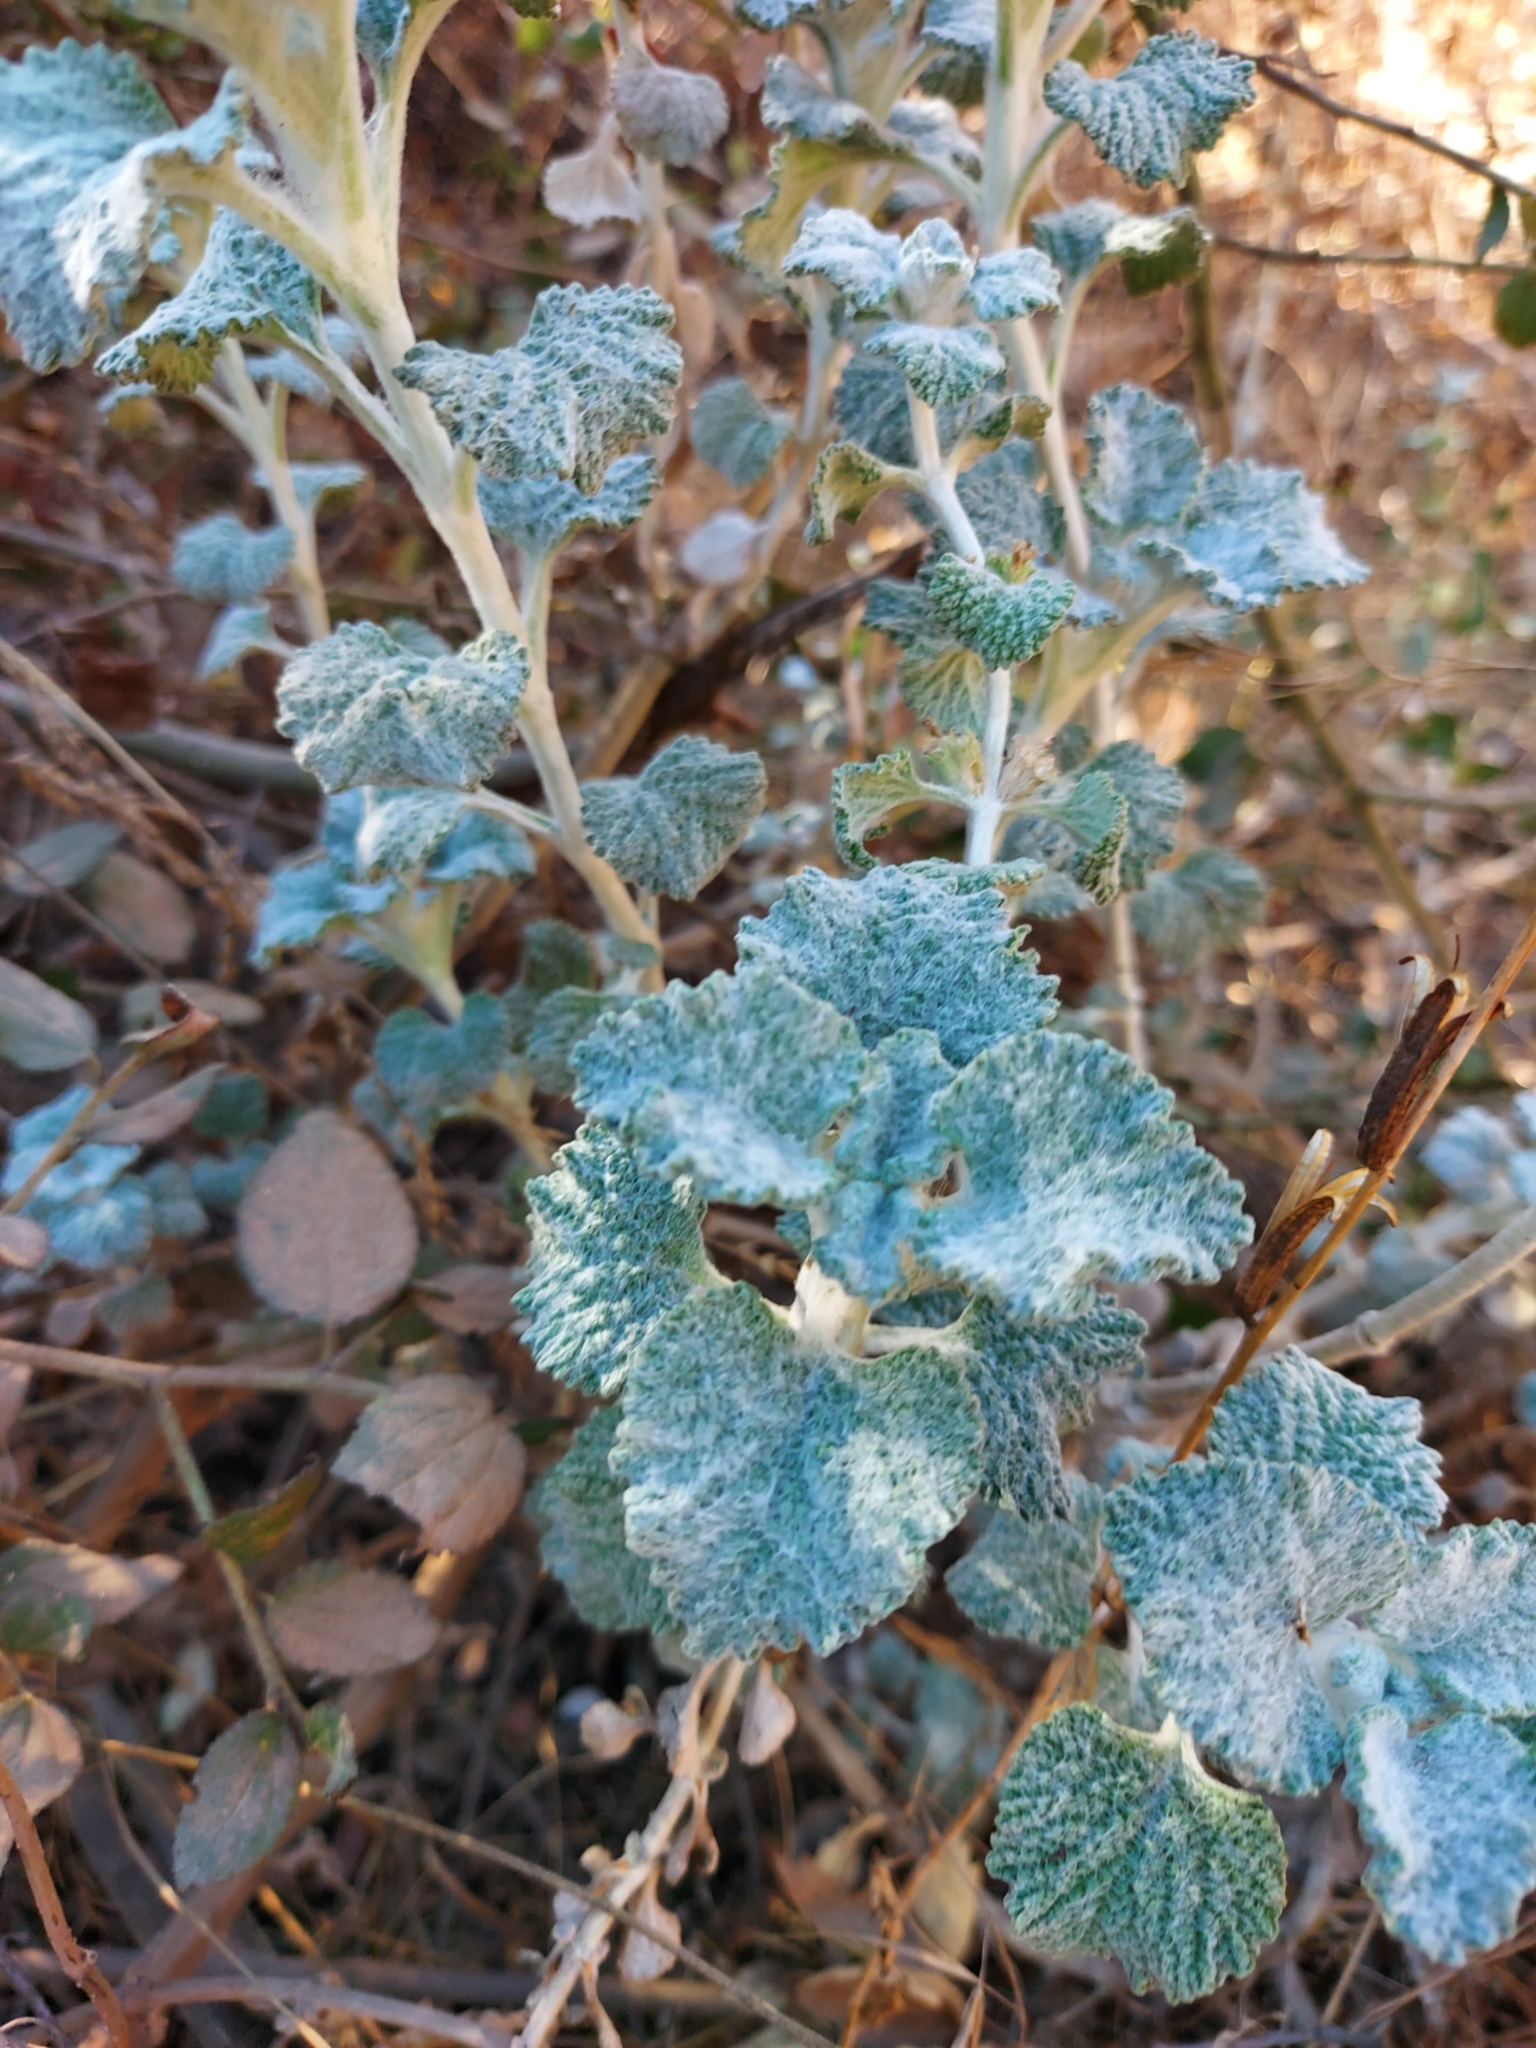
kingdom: Plantae
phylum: Tracheophyta
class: Magnoliopsida
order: Lamiales
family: Lamiaceae
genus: Marrubium
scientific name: Marrubium vulgare
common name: Horehound
